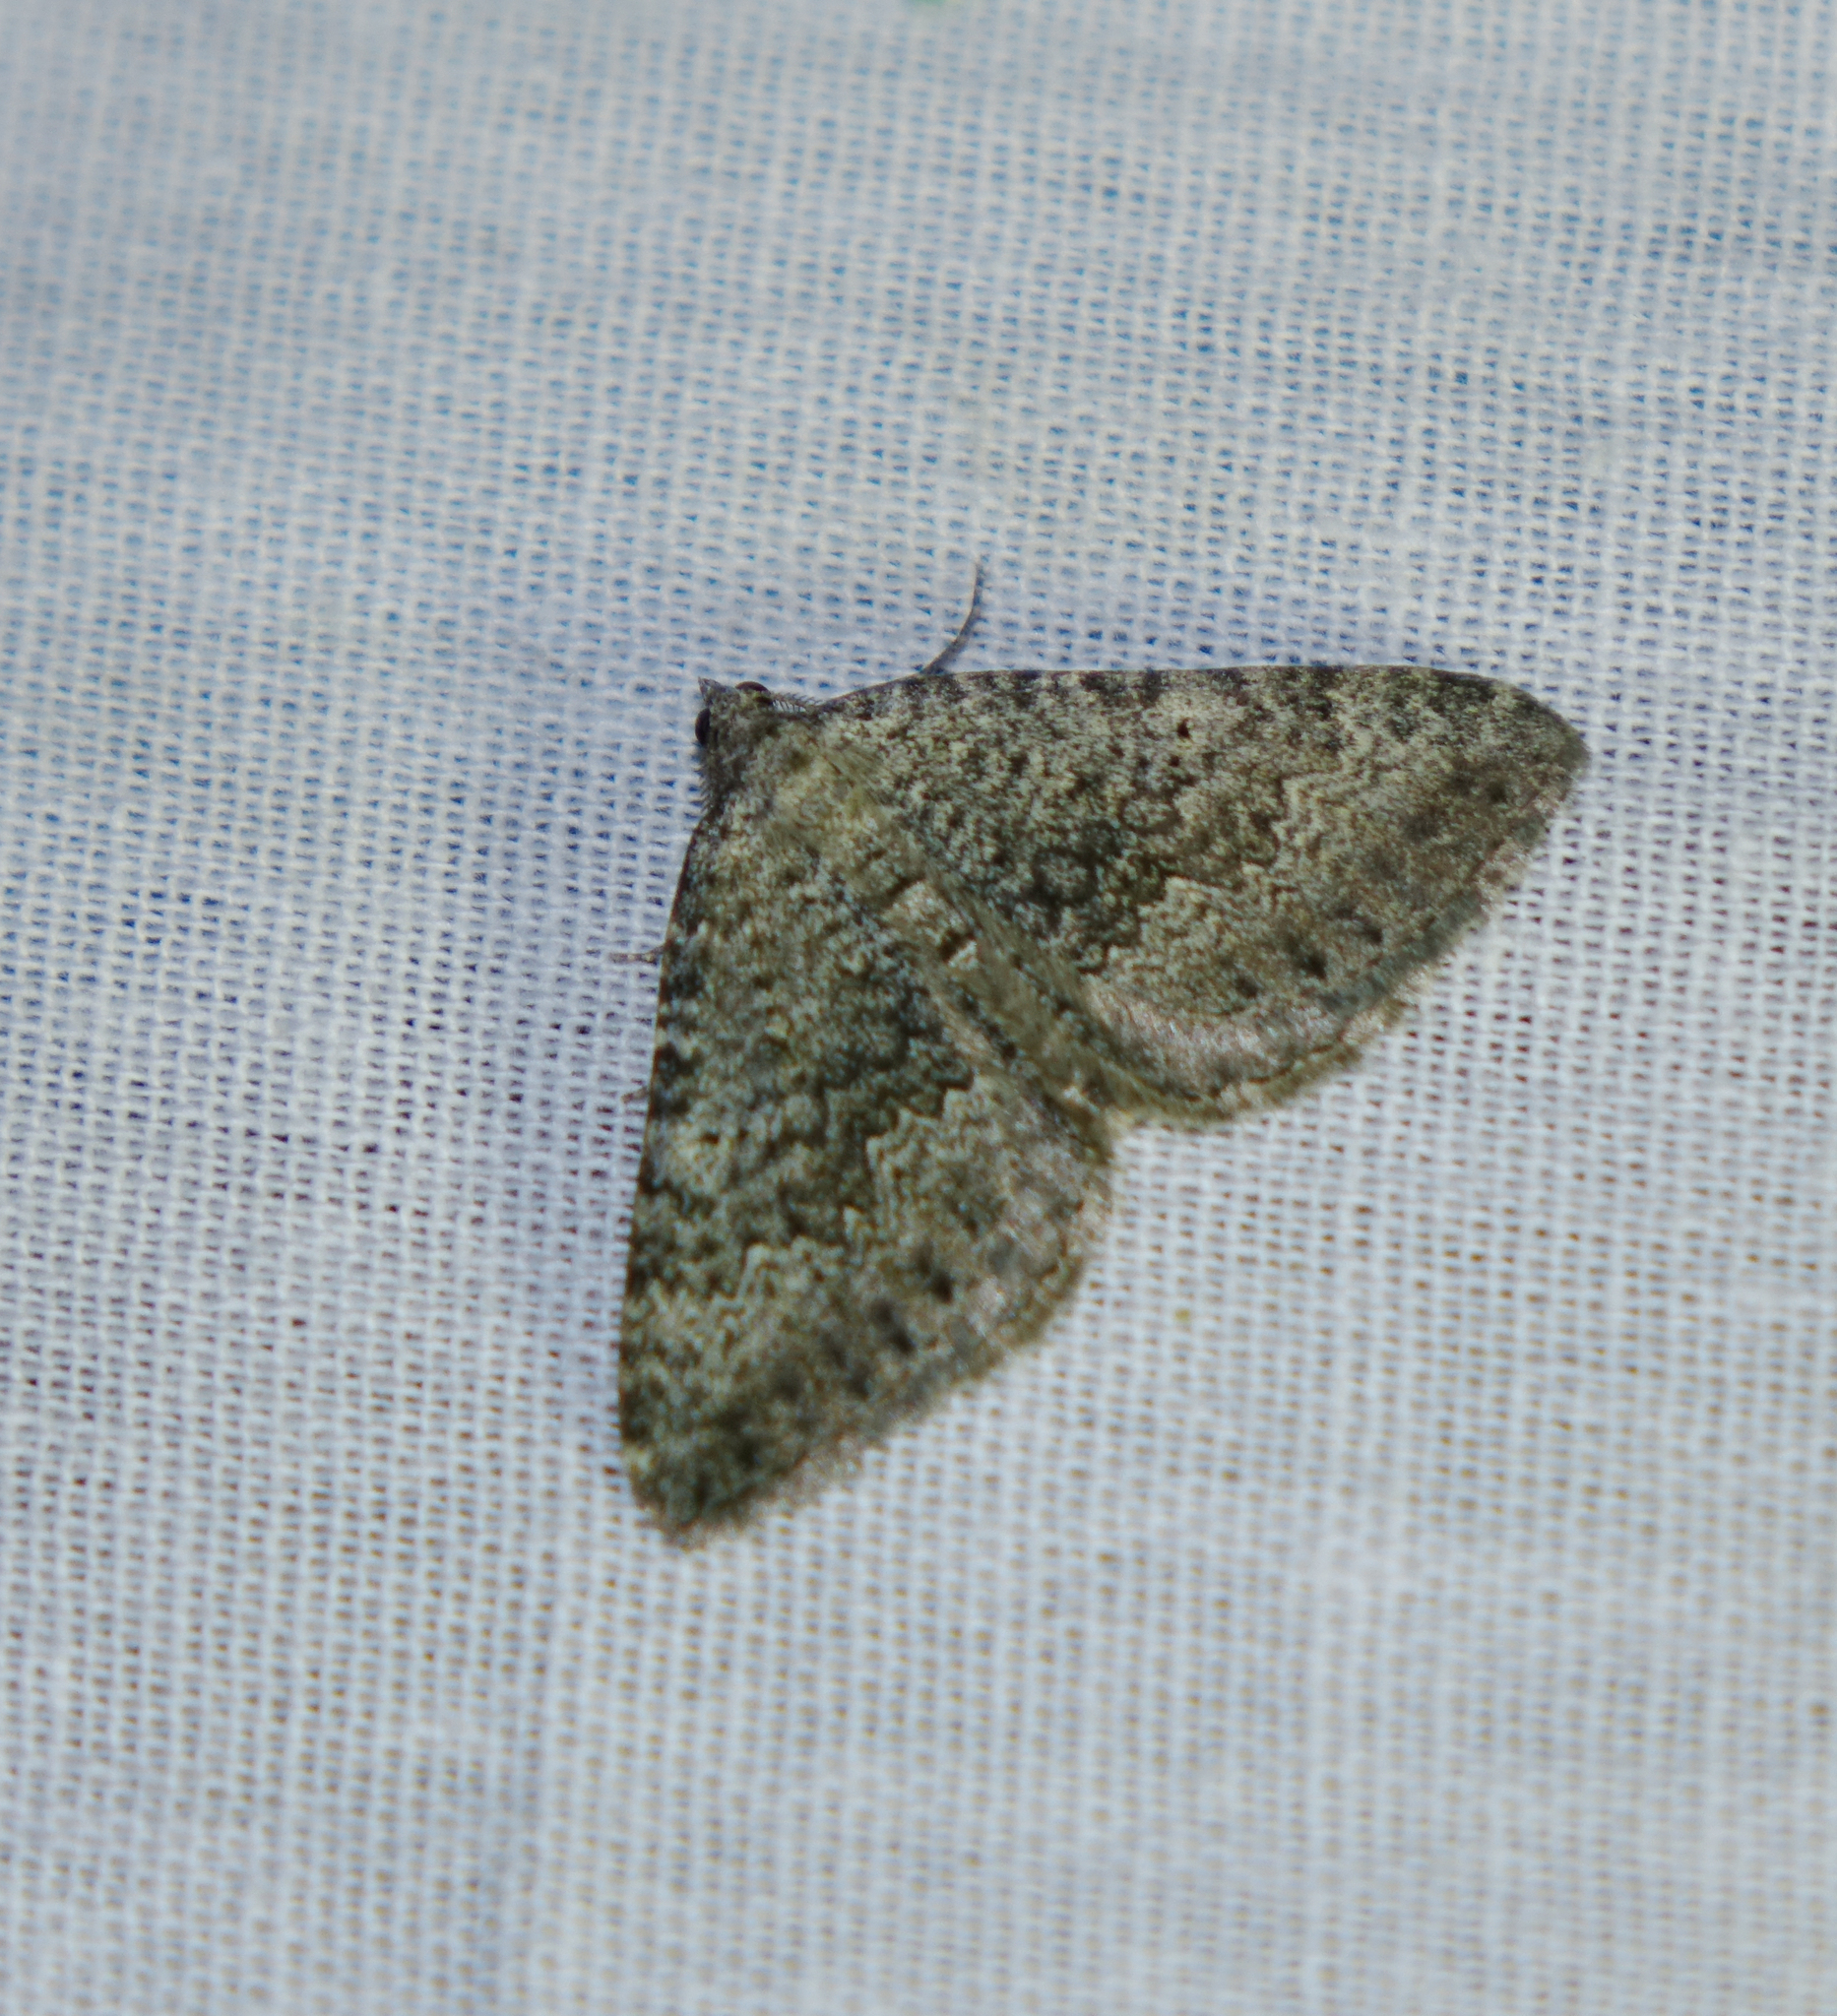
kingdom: Animalia
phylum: Arthropoda
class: Insecta
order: Lepidoptera
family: Geometridae
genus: Scotopteryx
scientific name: Scotopteryx
